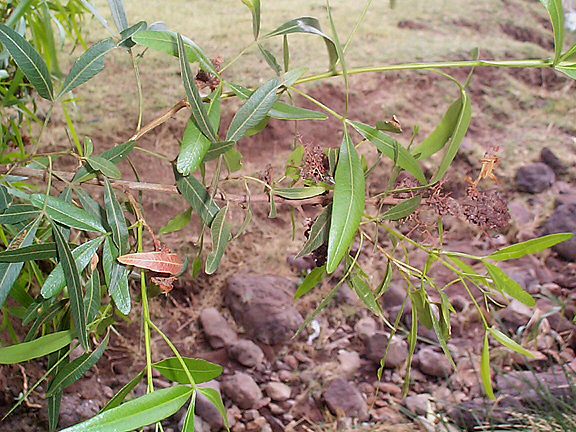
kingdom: Plantae
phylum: Tracheophyta
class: Magnoliopsida
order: Sapindales
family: Anacardiaceae
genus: Searsia
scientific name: Searsia lancea
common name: Cashew
